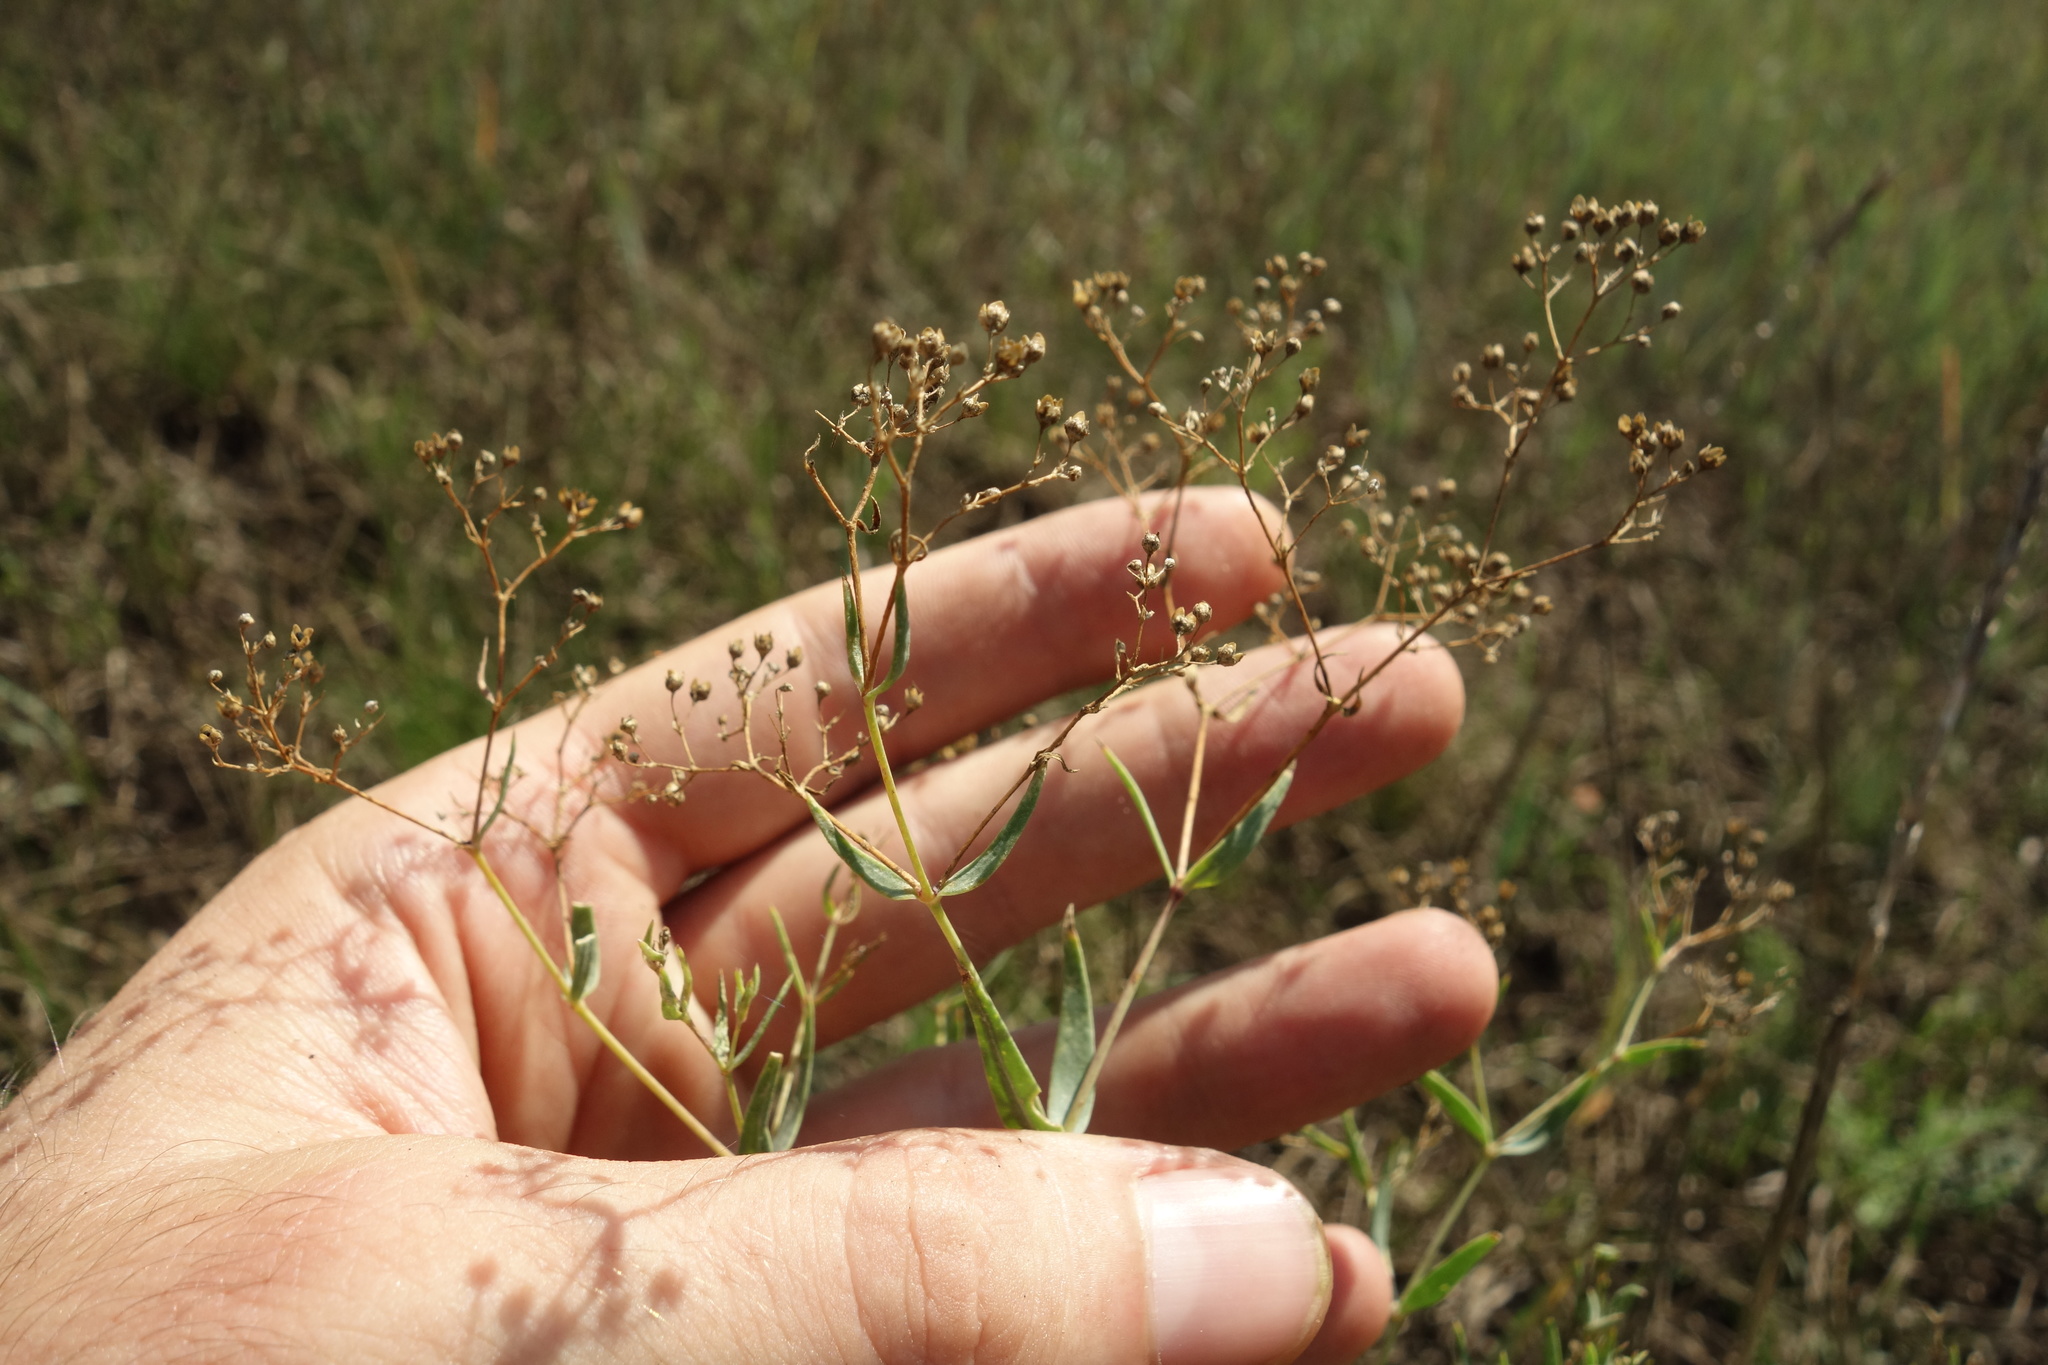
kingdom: Plantae
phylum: Tracheophyta
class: Magnoliopsida
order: Caryophyllales
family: Caryophyllaceae
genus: Gypsophila
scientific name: Gypsophila paniculata
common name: Baby's-breath
